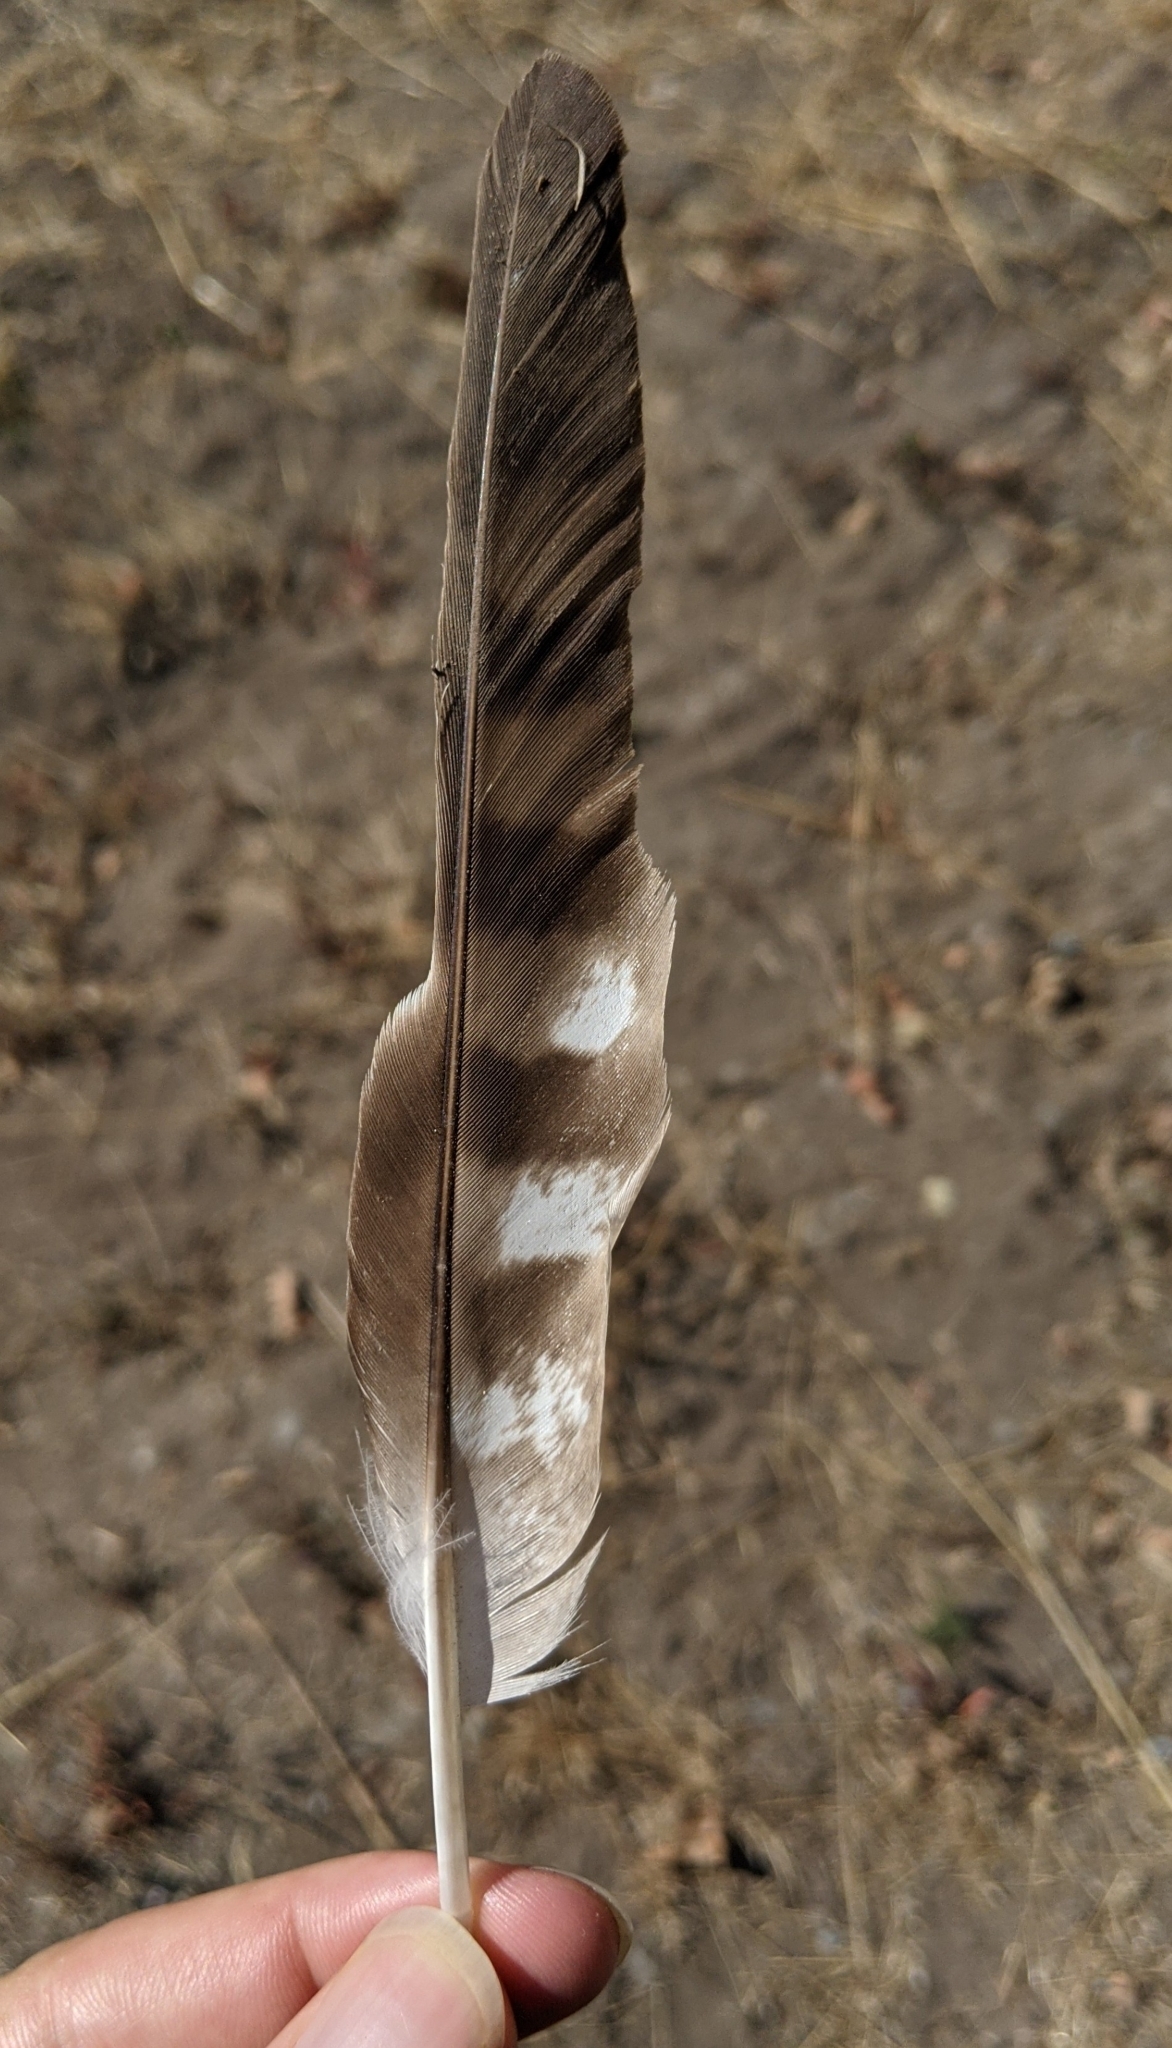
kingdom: Animalia
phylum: Chordata
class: Aves
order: Accipitriformes
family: Accipitridae
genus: Accipiter
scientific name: Accipiter cooperii
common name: Cooper's hawk
